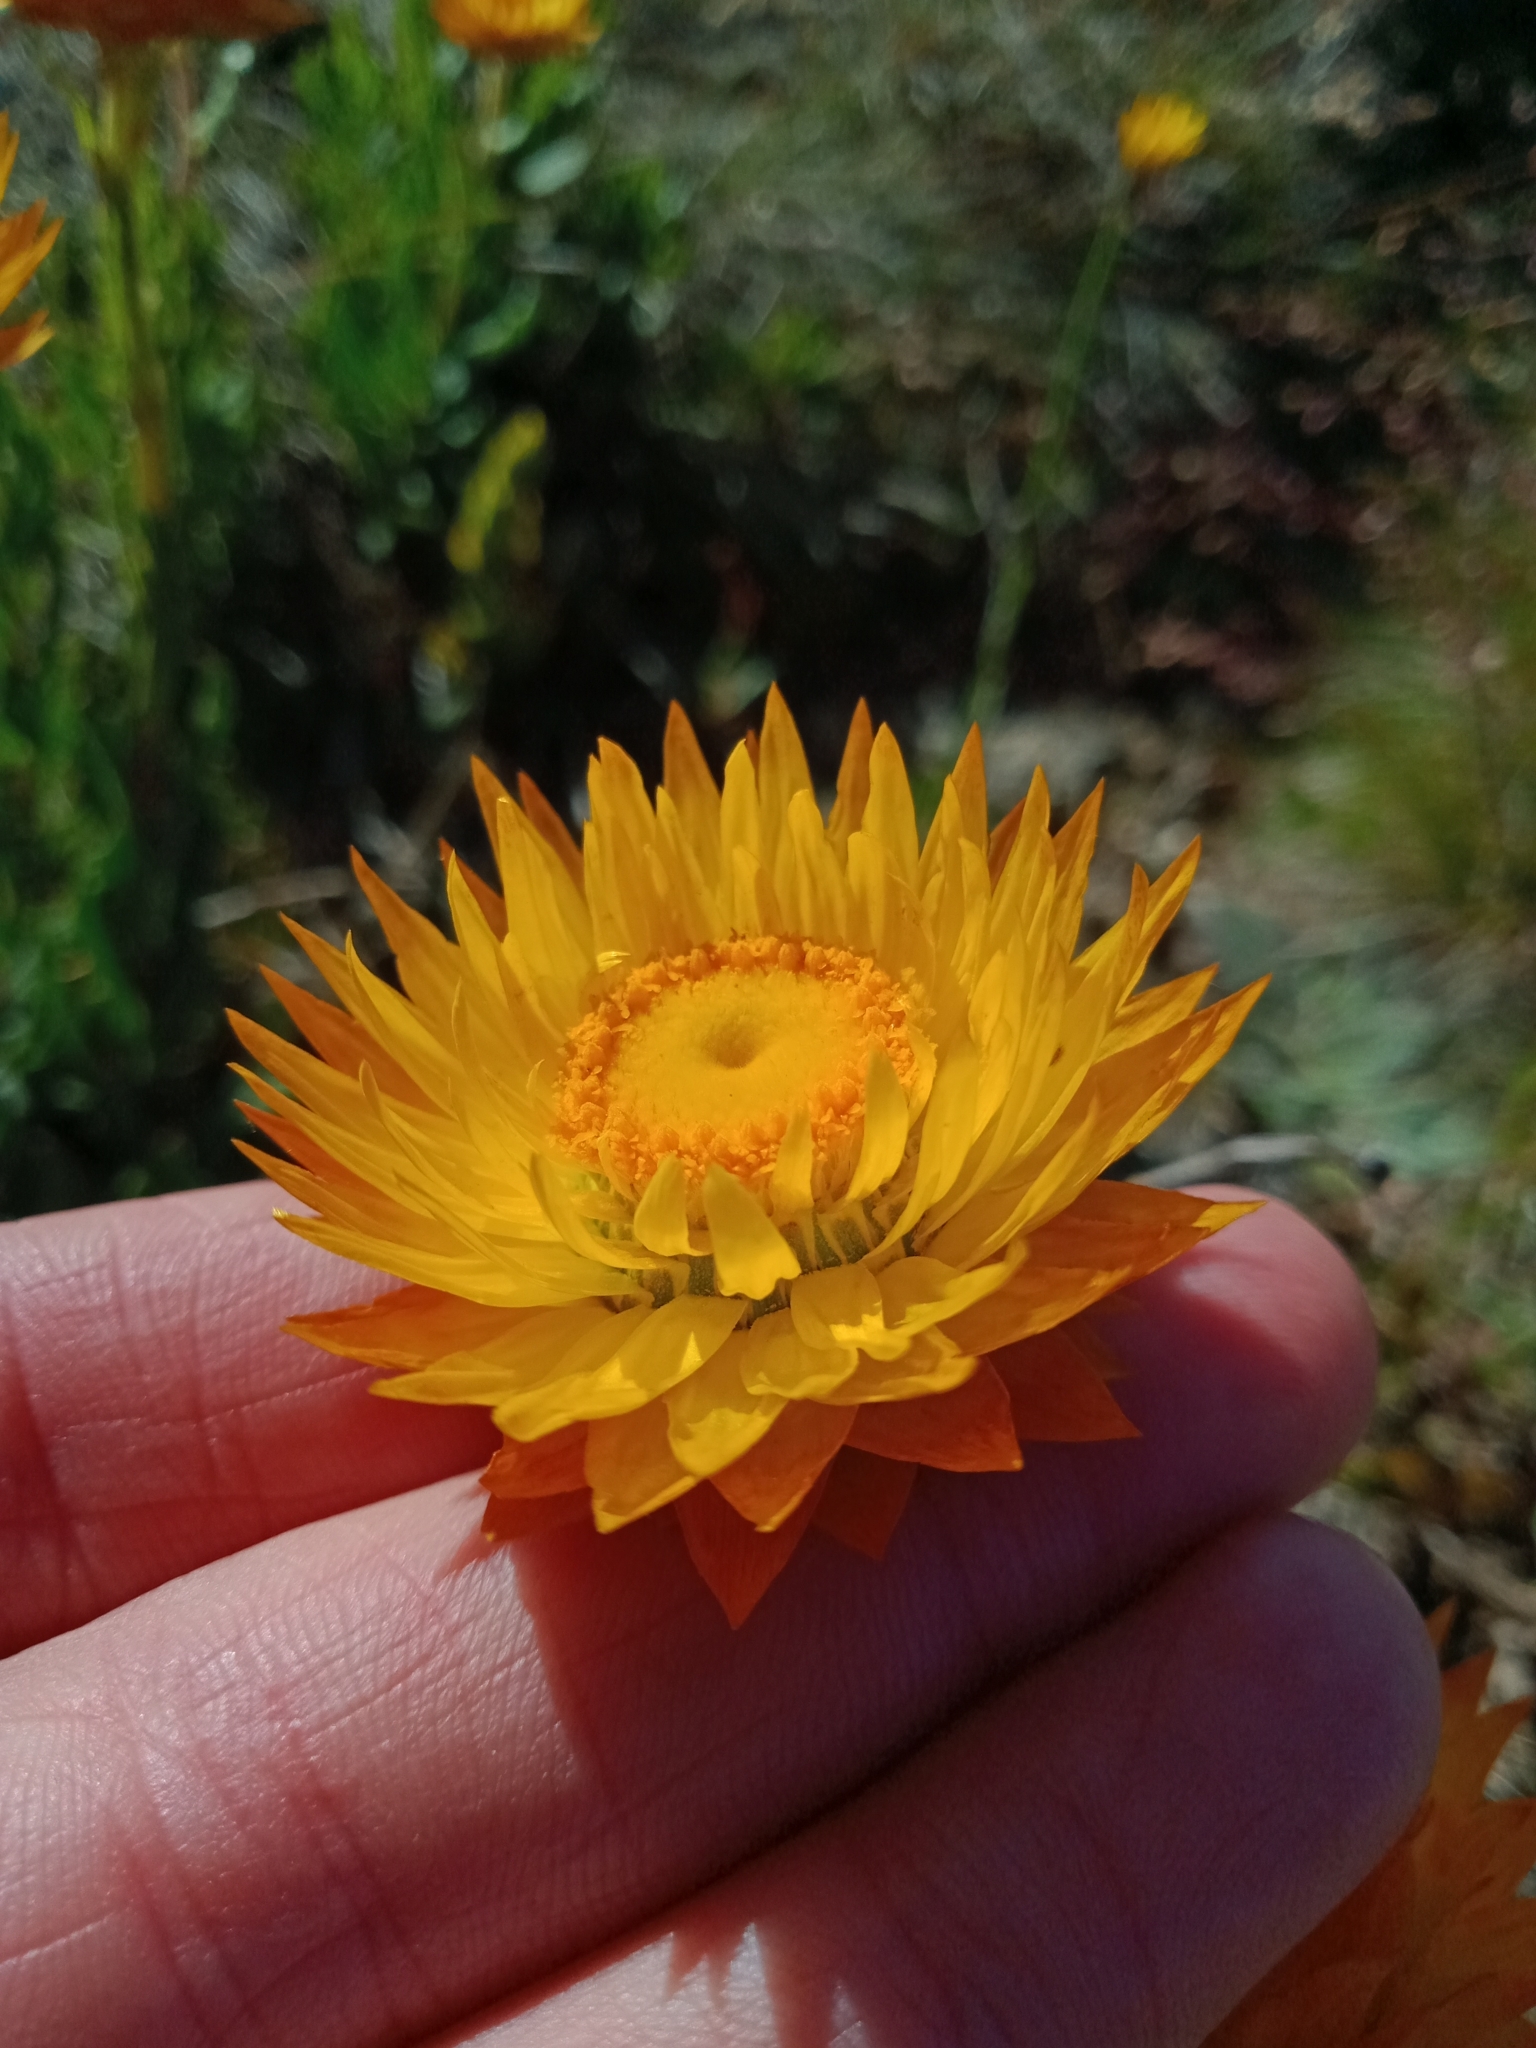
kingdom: Plantae
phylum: Tracheophyta
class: Magnoliopsida
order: Asterales
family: Asteraceae
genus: Xerochrysum
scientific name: Xerochrysum subundulatum
